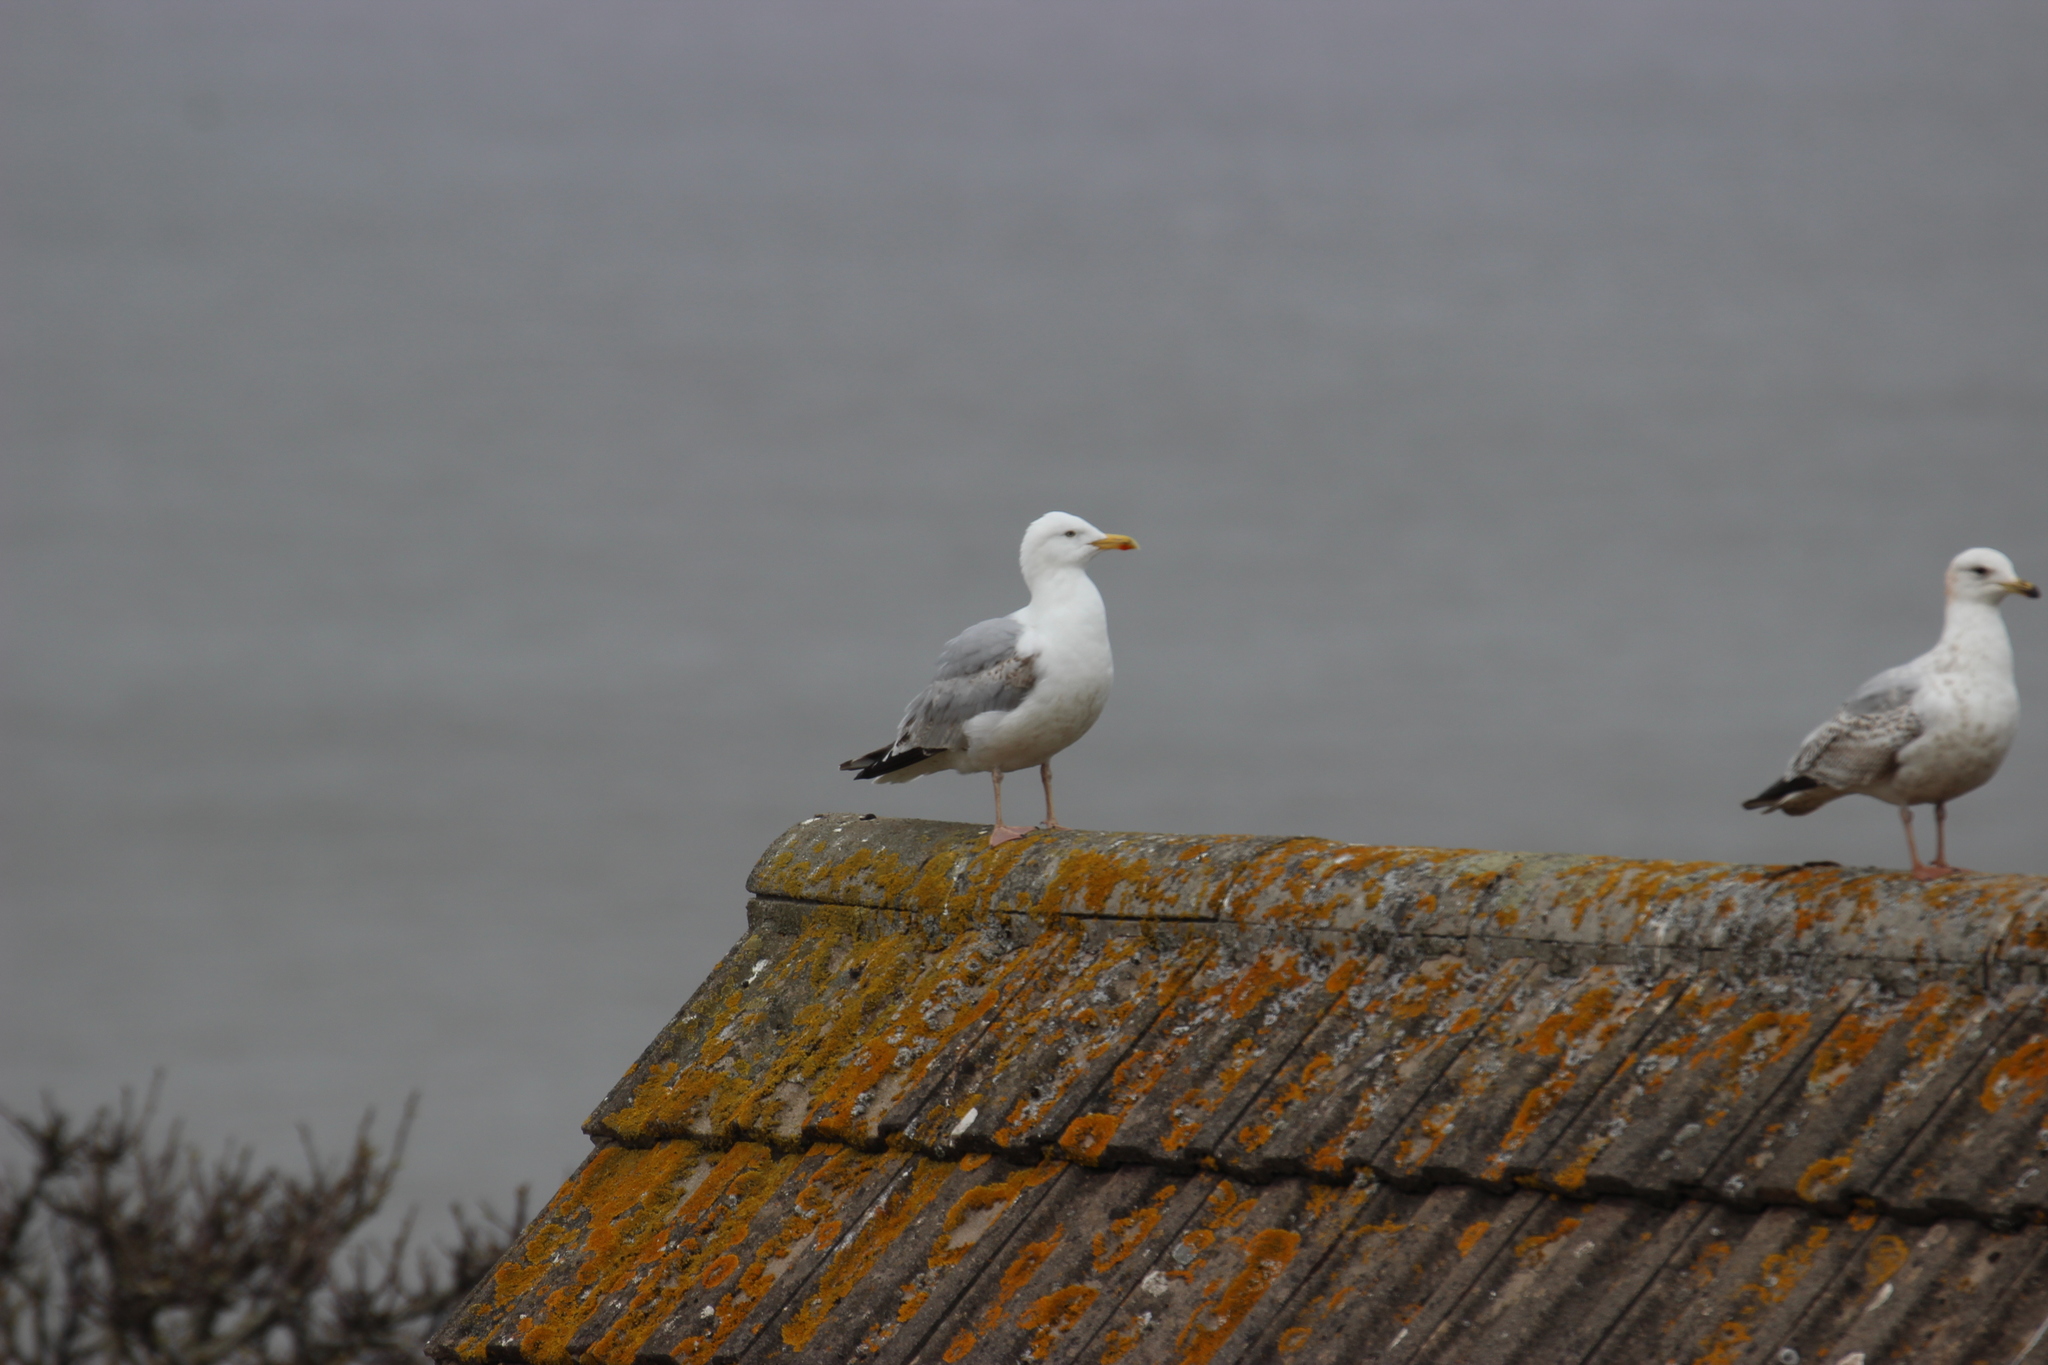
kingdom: Animalia
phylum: Chordata
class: Aves
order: Charadriiformes
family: Laridae
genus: Larus
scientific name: Larus argentatus
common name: Herring gull
